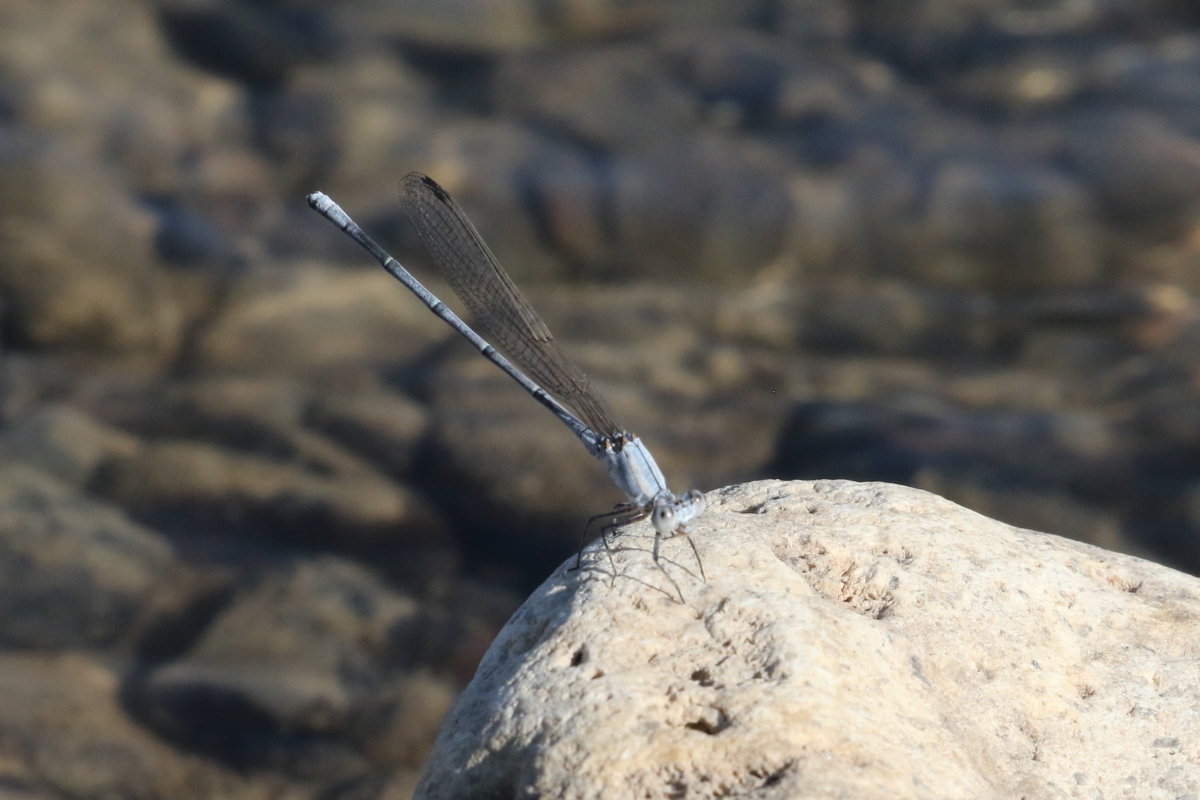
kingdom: Animalia
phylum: Arthropoda
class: Insecta
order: Odonata
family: Coenagrionidae
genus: Argia
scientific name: Argia moesta
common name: Powdered dancer
